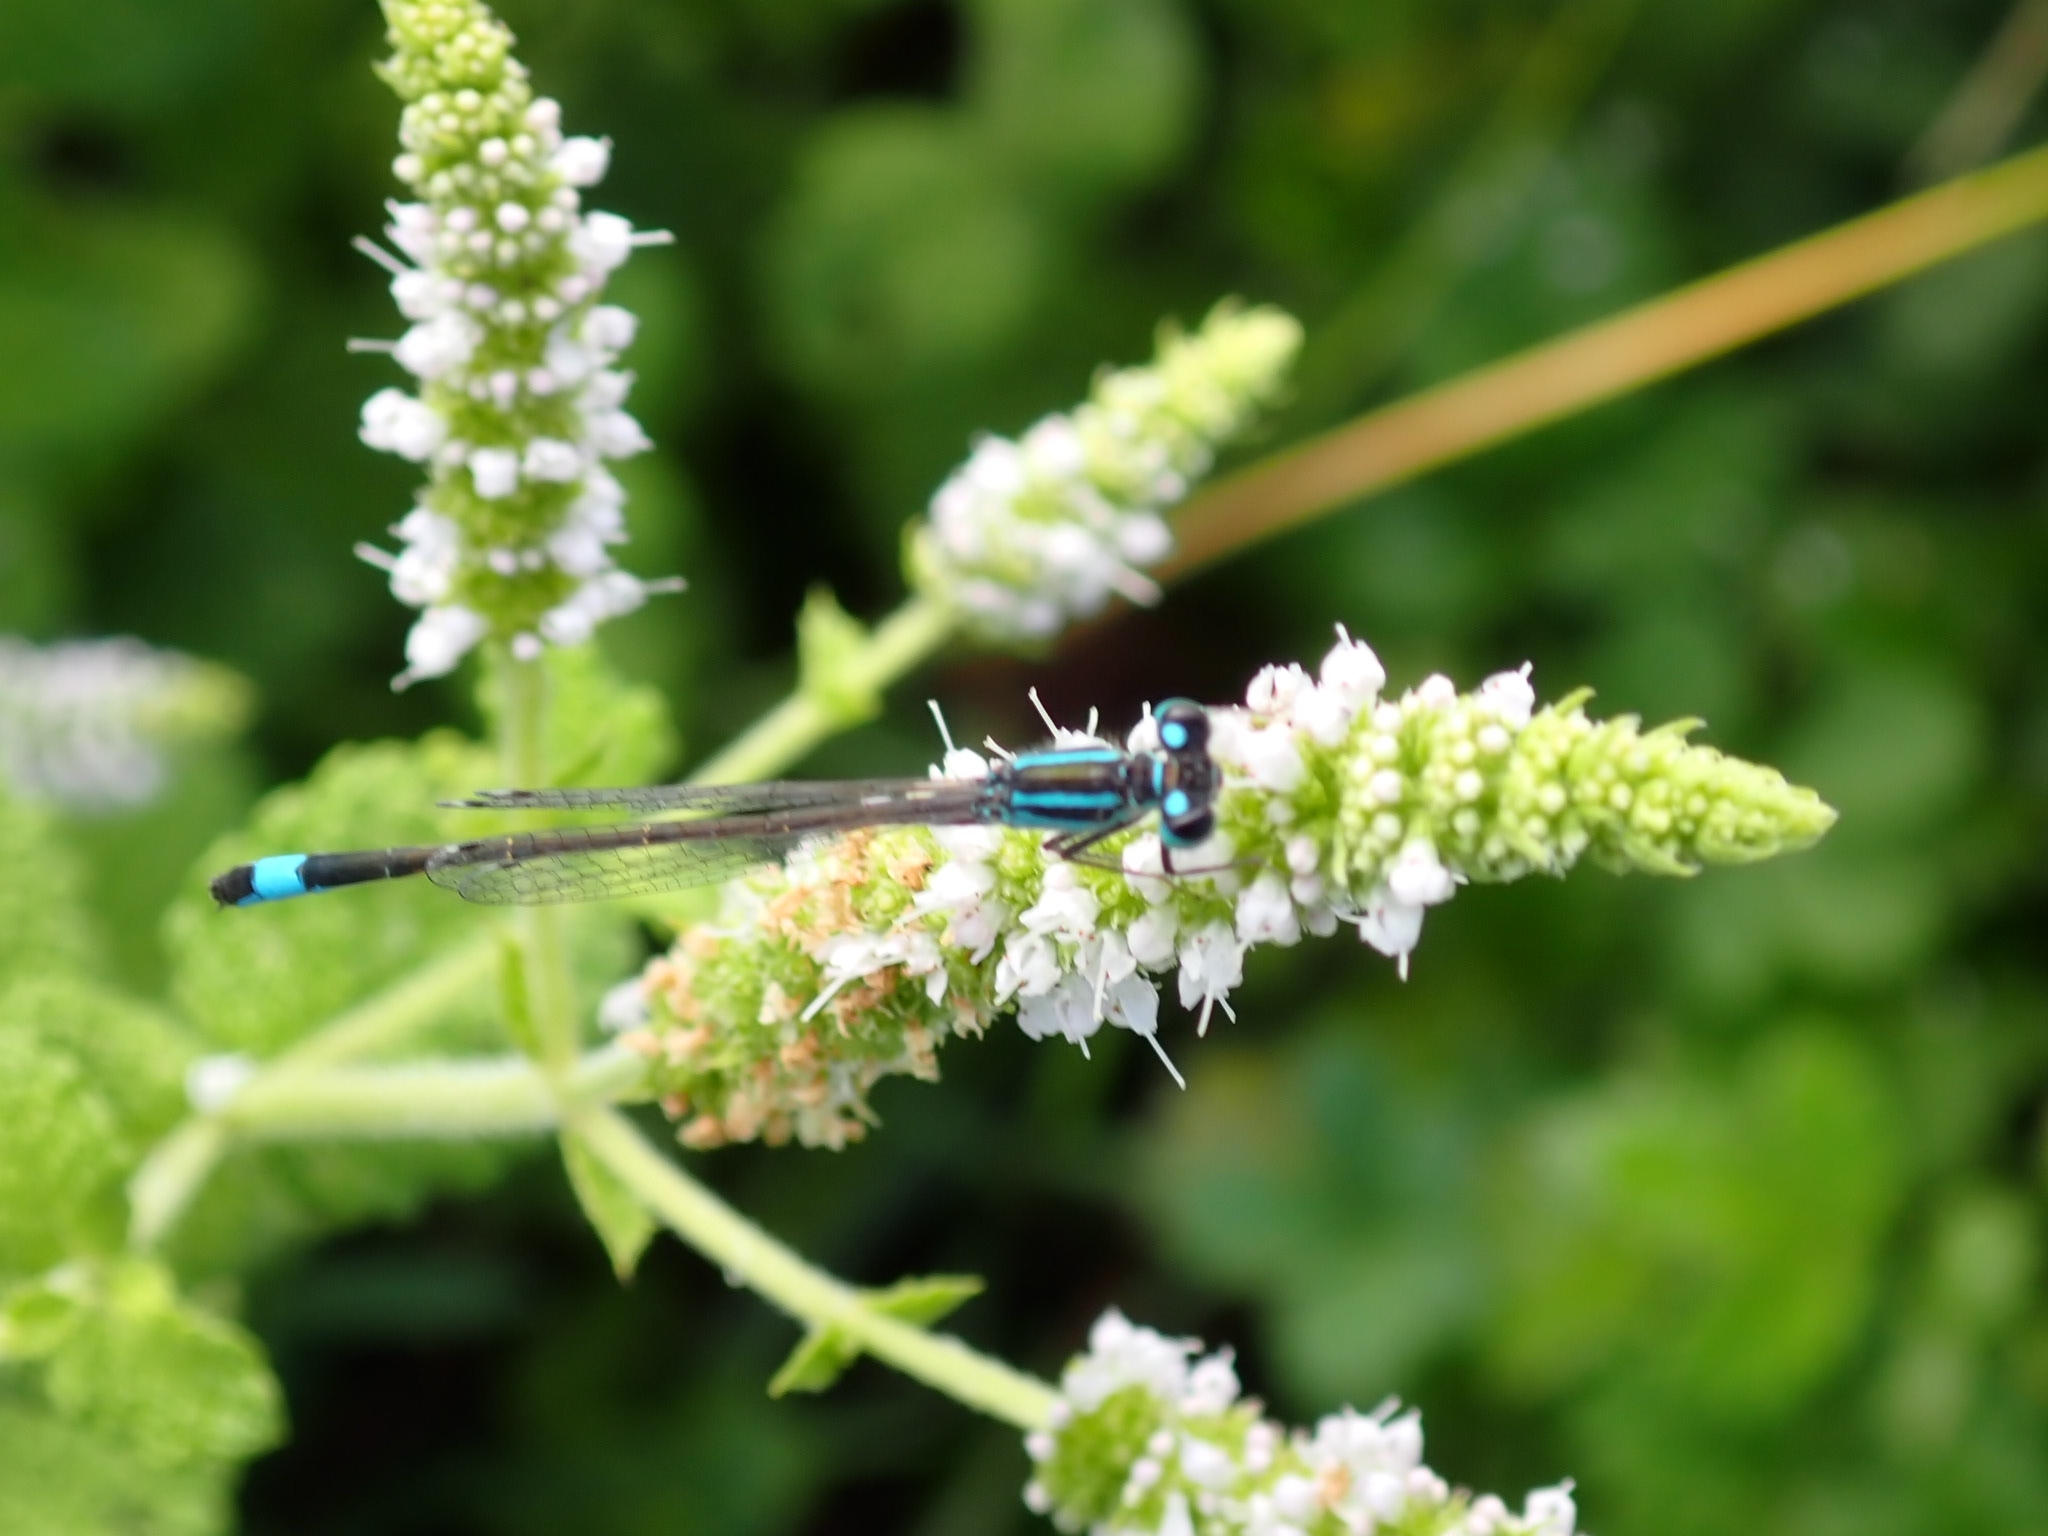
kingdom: Animalia
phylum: Arthropoda
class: Insecta
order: Odonata
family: Coenagrionidae
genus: Ischnura
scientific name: Ischnura elegans
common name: Blue-tailed damselfly
